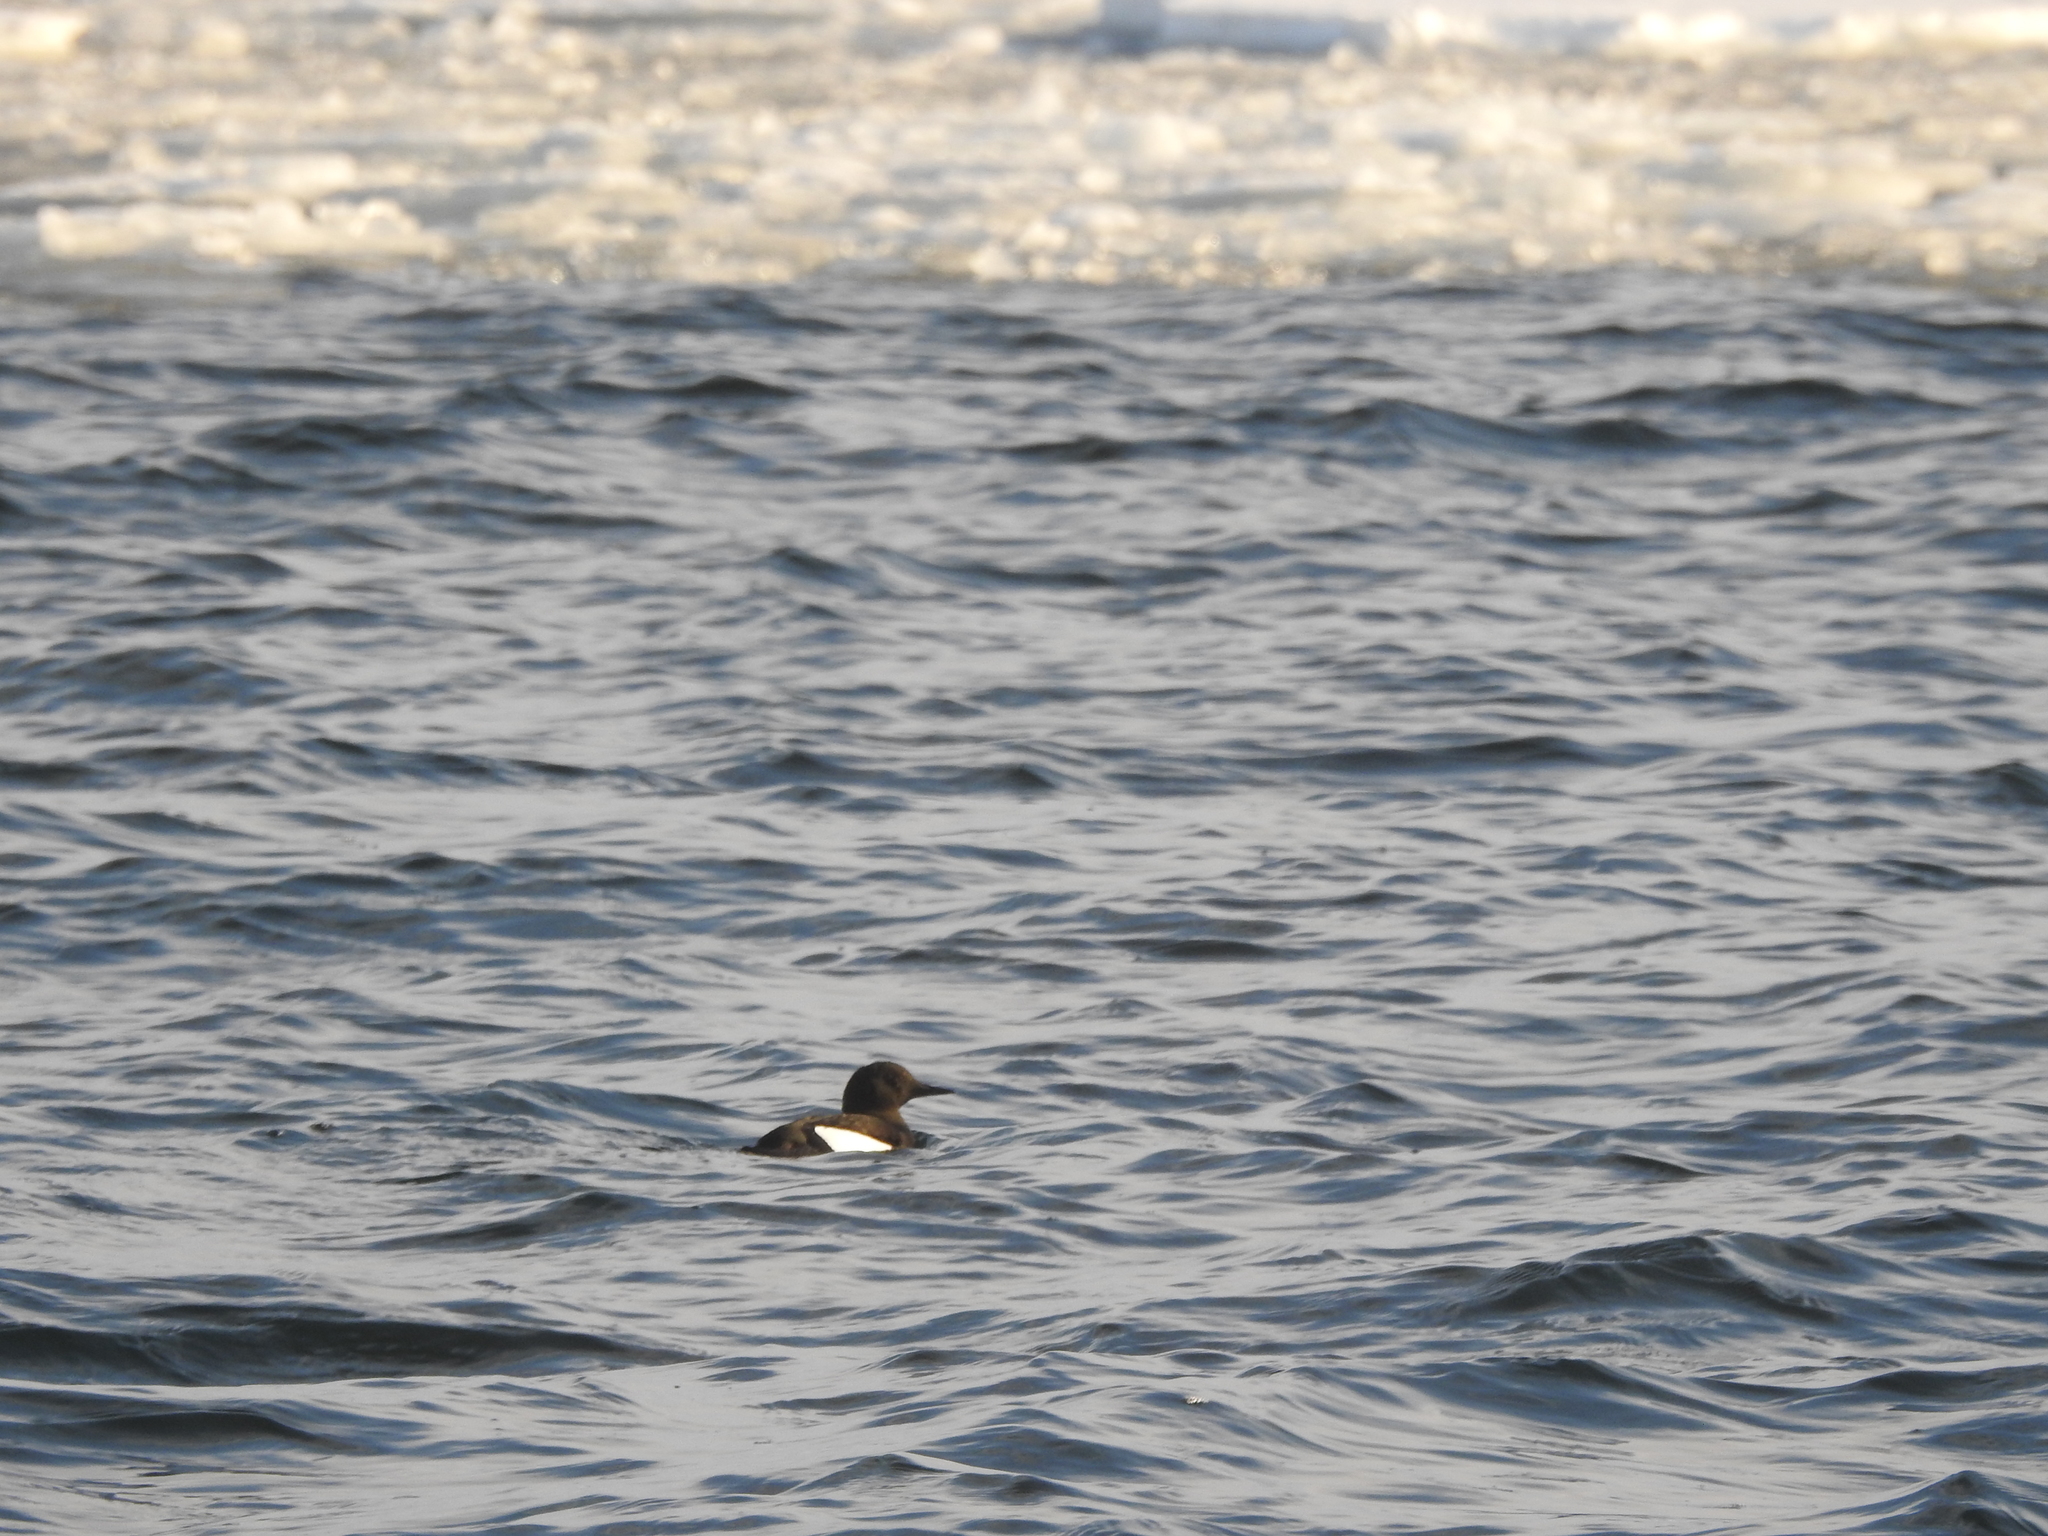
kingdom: Animalia
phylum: Chordata
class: Aves
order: Charadriiformes
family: Alcidae
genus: Cepphus
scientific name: Cepphus grylle
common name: Black guillemot
